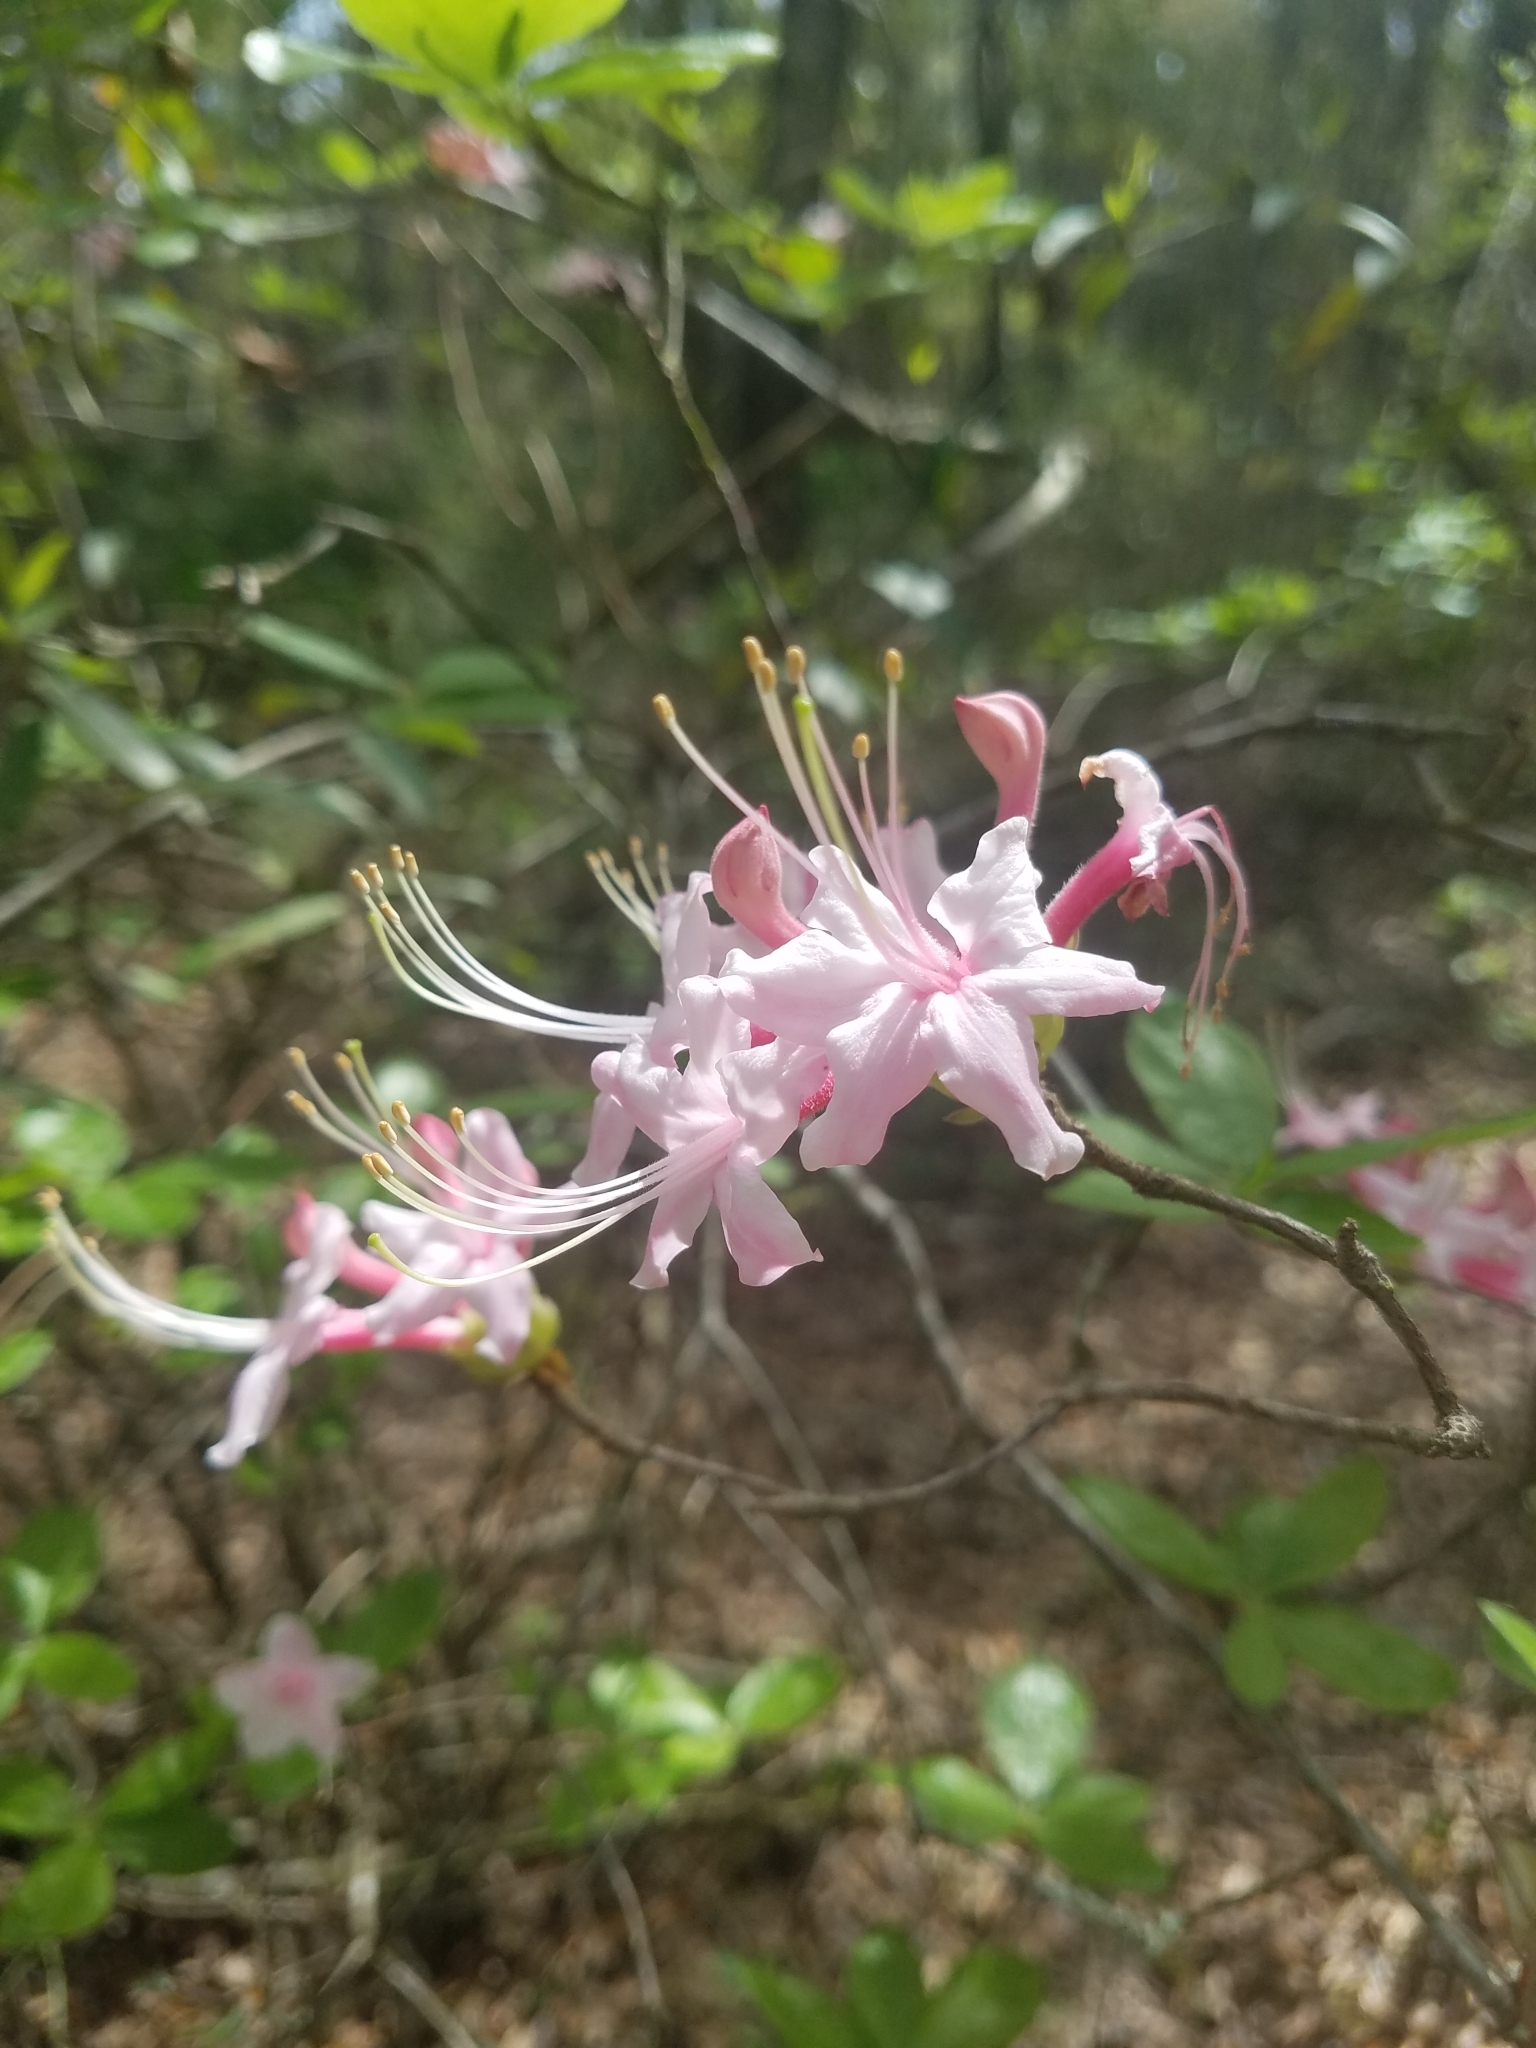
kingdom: Plantae
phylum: Tracheophyta
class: Magnoliopsida
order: Ericales
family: Ericaceae
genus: Rhododendron
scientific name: Rhododendron canescens
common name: Mountain azalea
